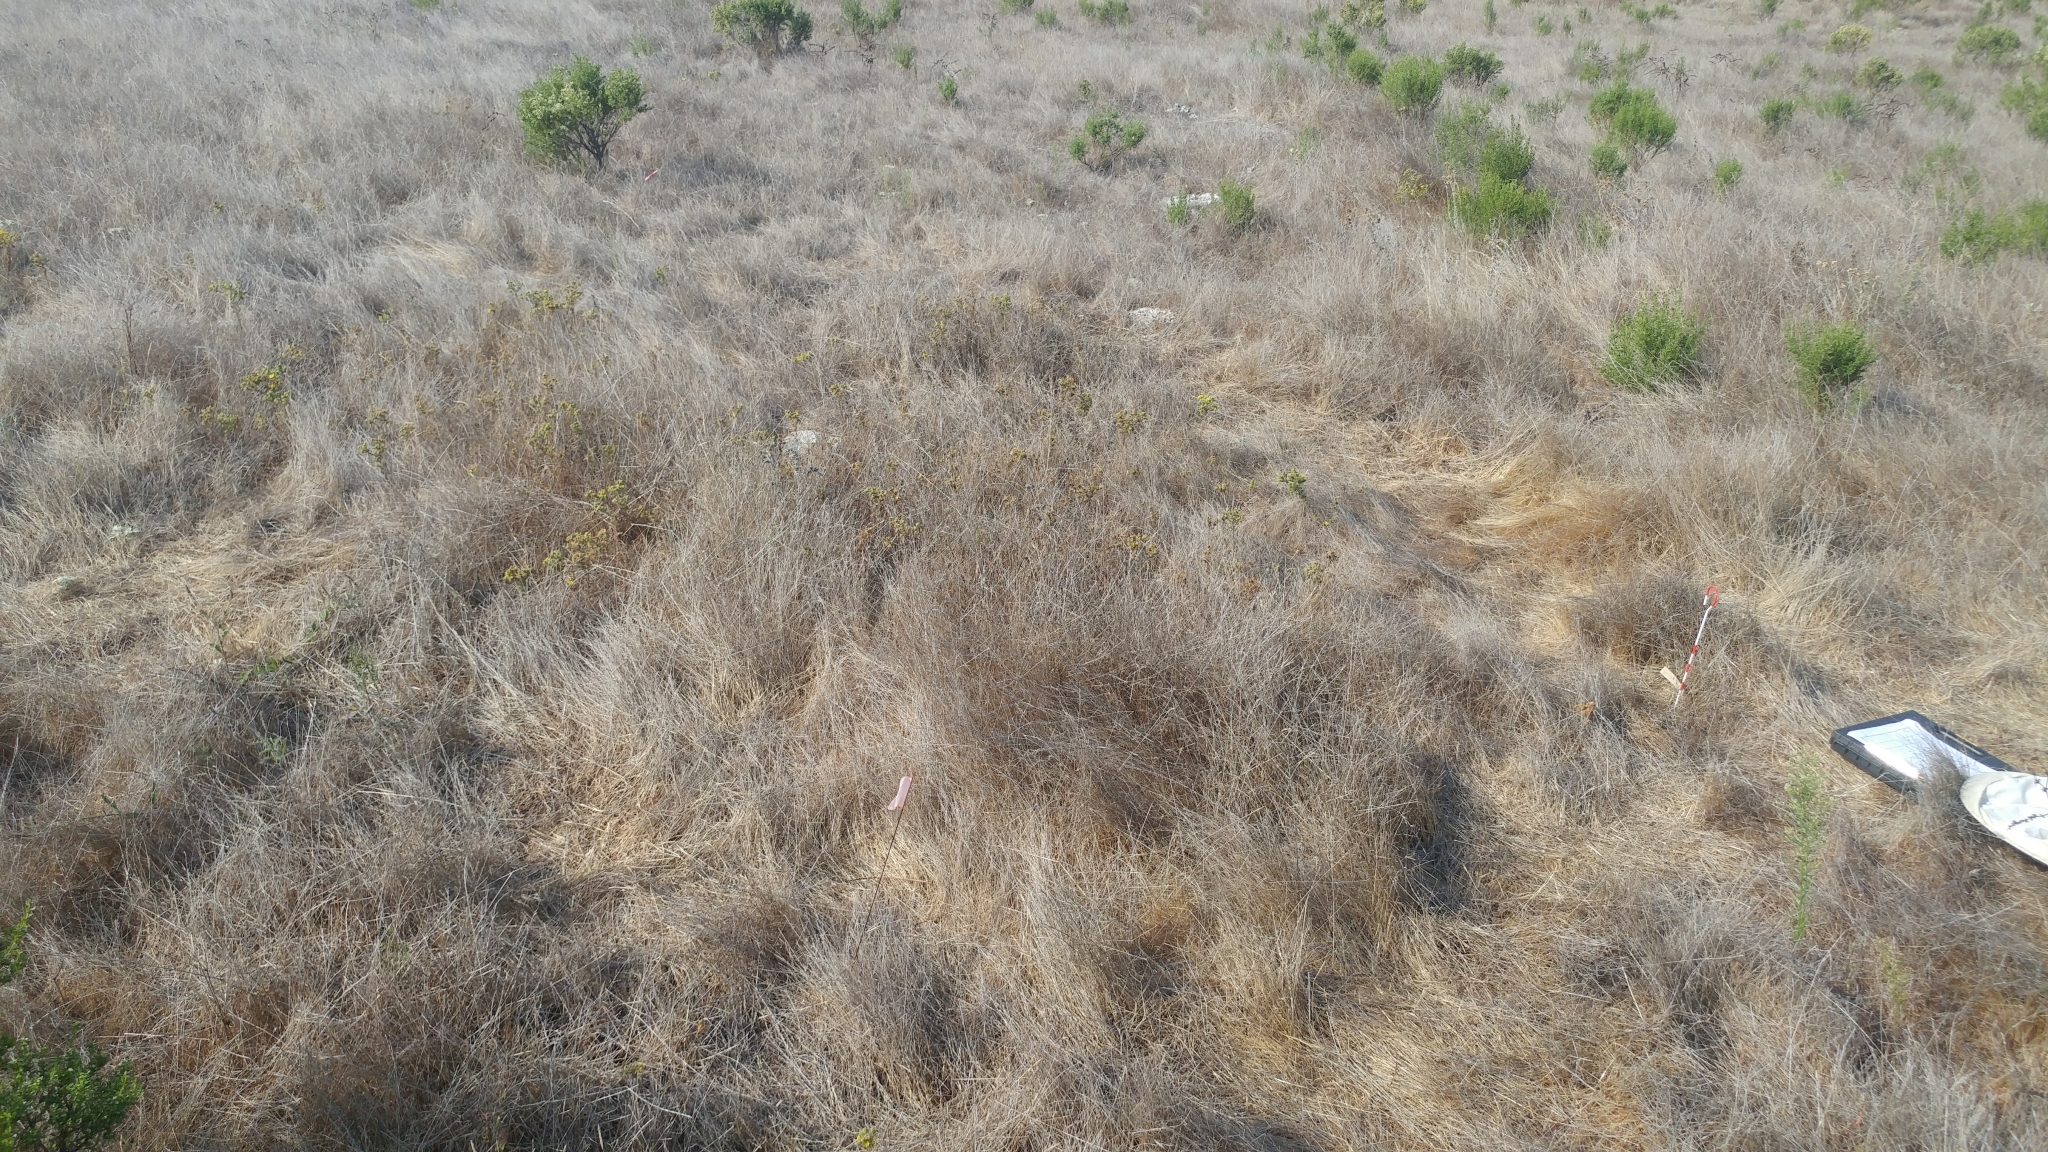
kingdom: Plantae
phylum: Tracheophyta
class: Magnoliopsida
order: Asterales
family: Asteraceae
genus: Deinandra
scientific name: Deinandra increscens
